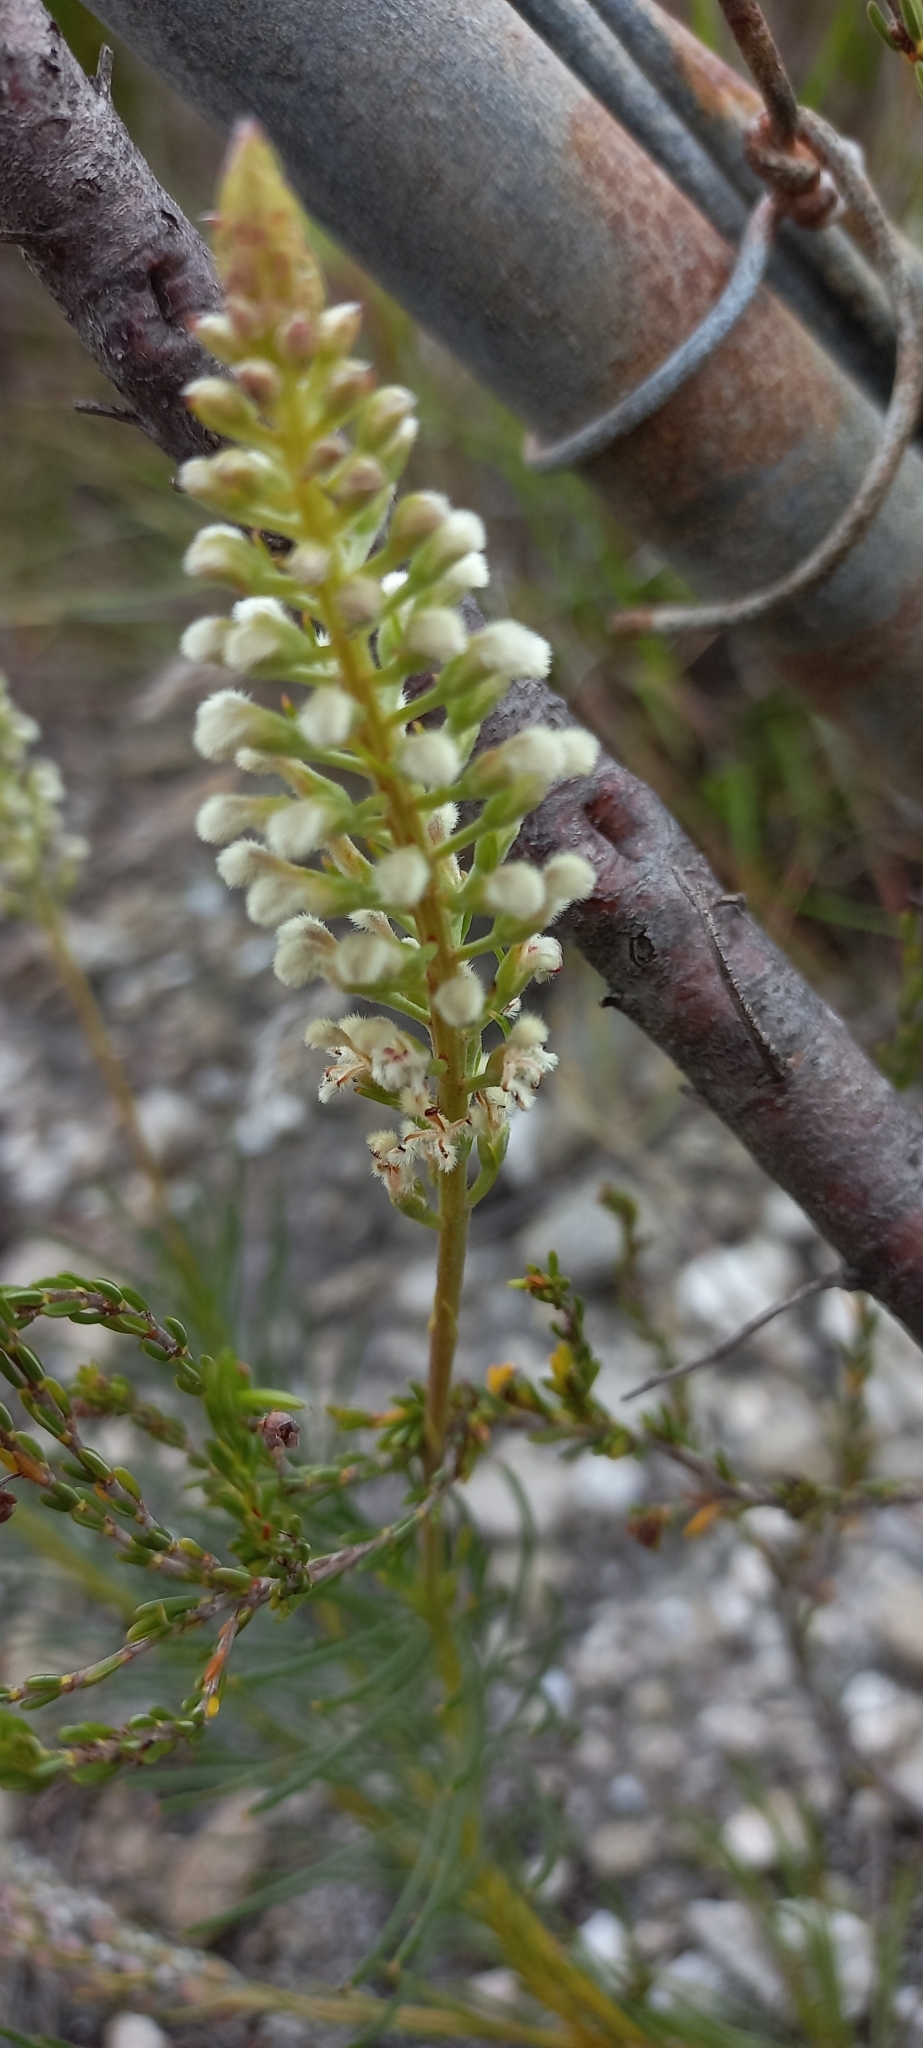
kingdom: Plantae
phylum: Tracheophyta
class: Magnoliopsida
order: Proteales
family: Proteaceae
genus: Spatalla
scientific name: Spatalla curvifolia
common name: White-stalked spoon
